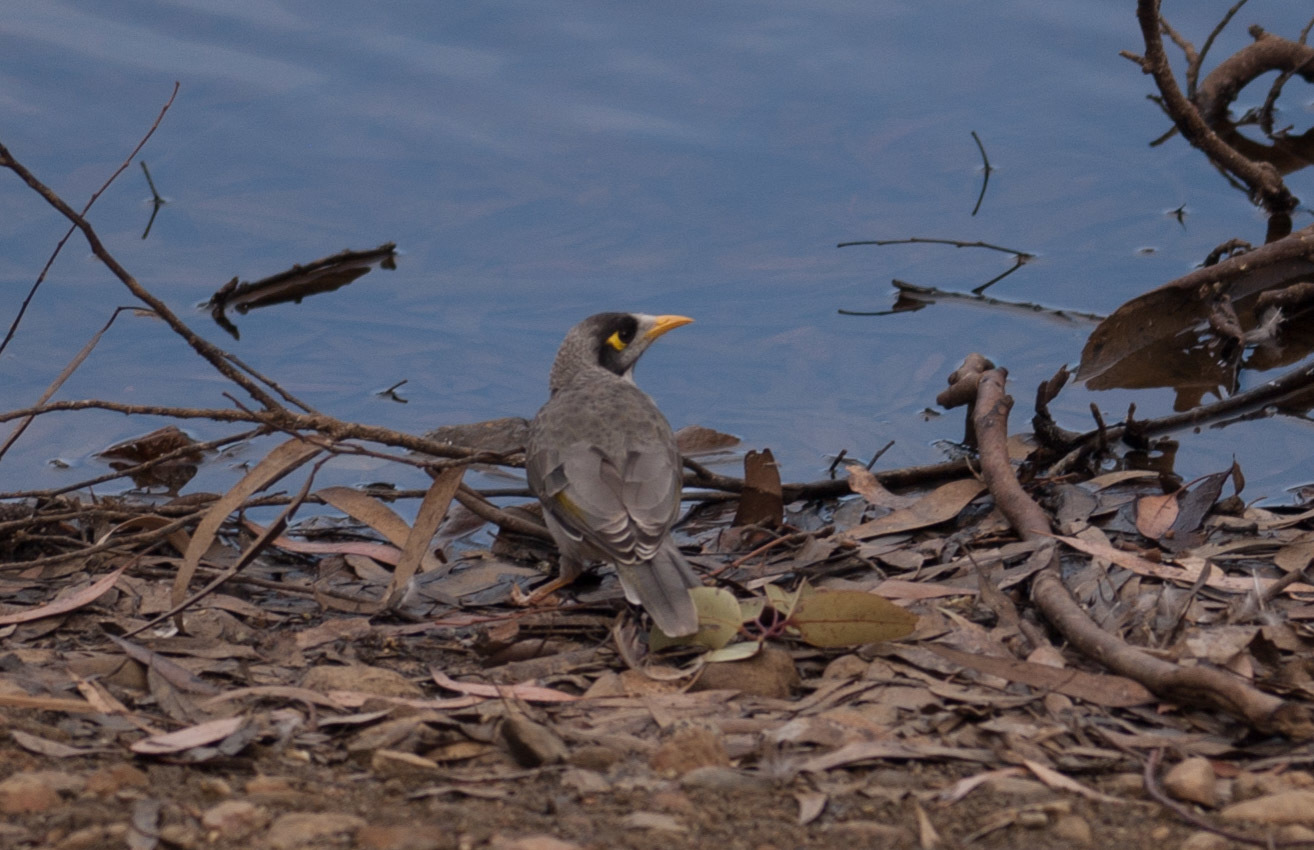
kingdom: Animalia
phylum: Chordata
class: Aves
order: Passeriformes
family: Meliphagidae
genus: Manorina
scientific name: Manorina melanocephala
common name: Noisy miner
